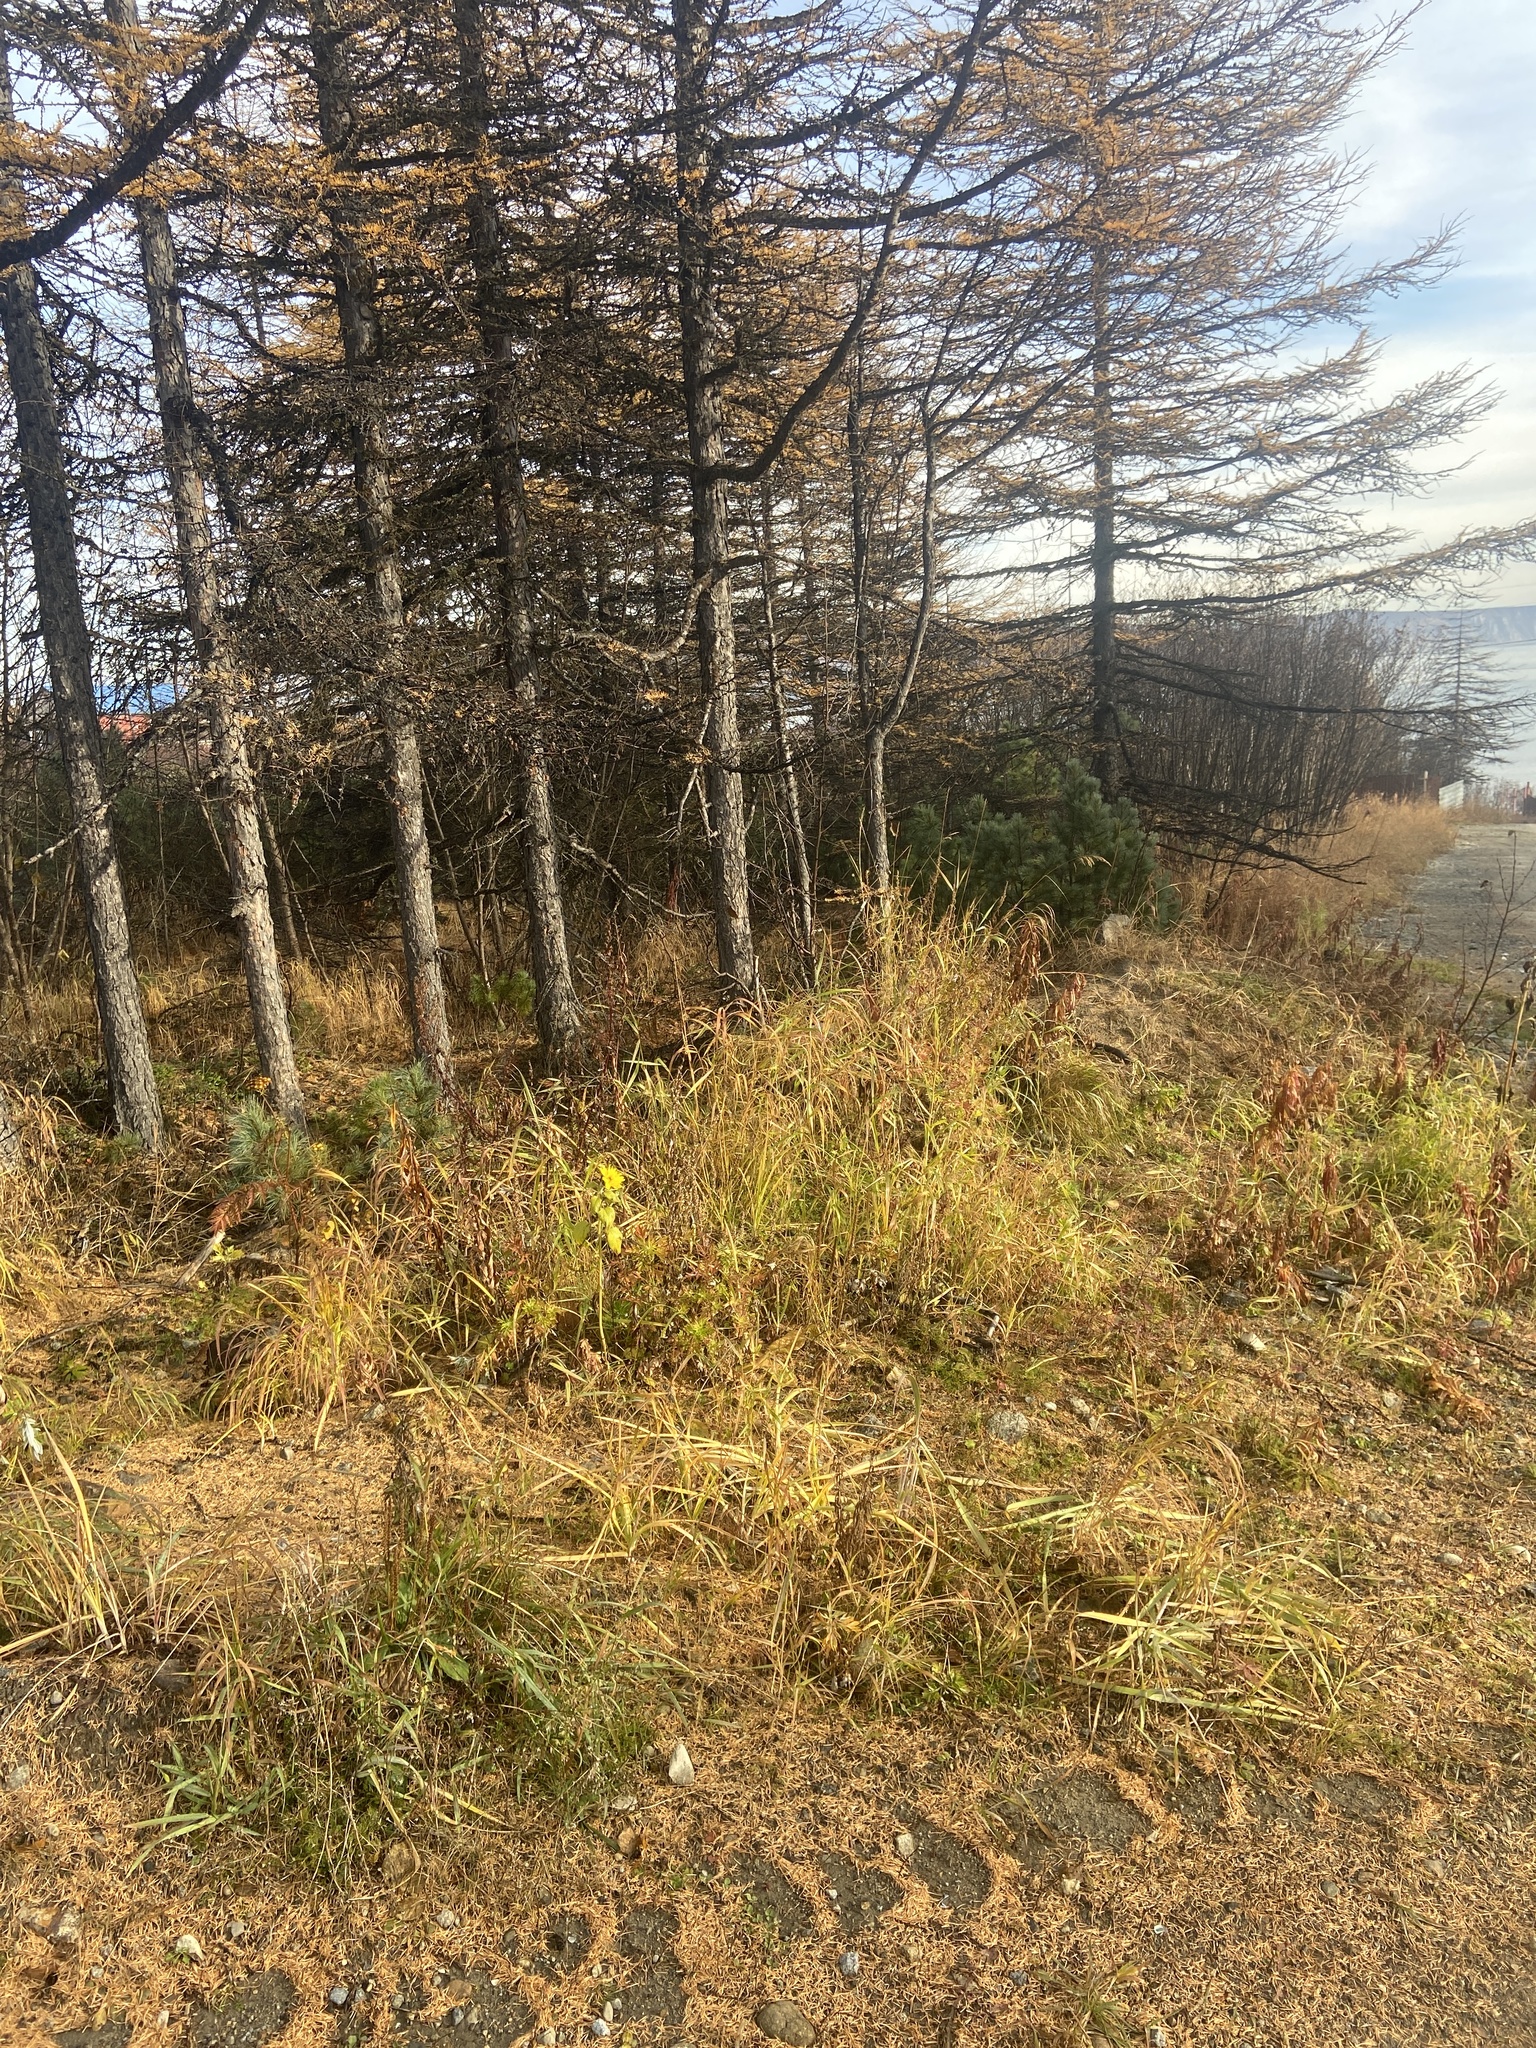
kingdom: Plantae
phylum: Tracheophyta
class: Magnoliopsida
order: Asterales
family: Asteraceae
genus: Helianthus
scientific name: Helianthus annuus
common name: Sunflower
